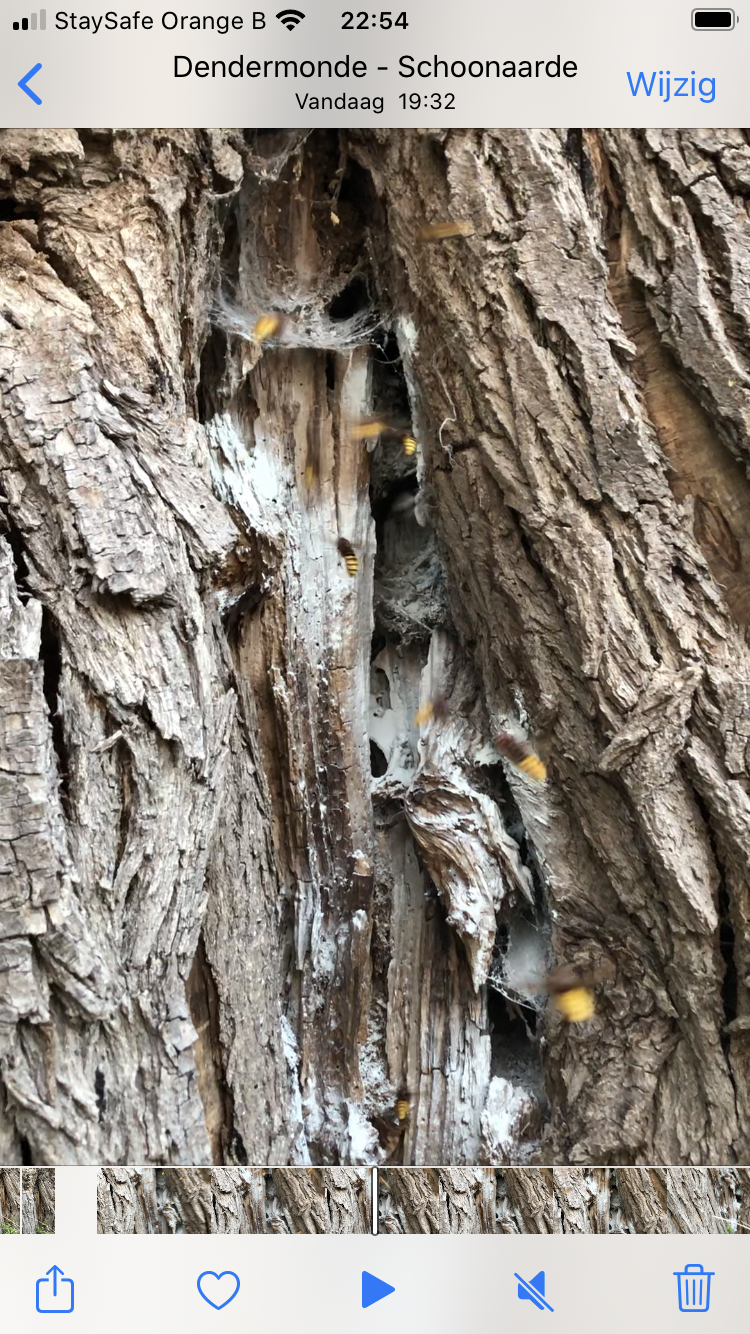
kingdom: Animalia
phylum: Arthropoda
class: Insecta
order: Hymenoptera
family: Vespidae
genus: Vespa
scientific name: Vespa crabro
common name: Hornet
